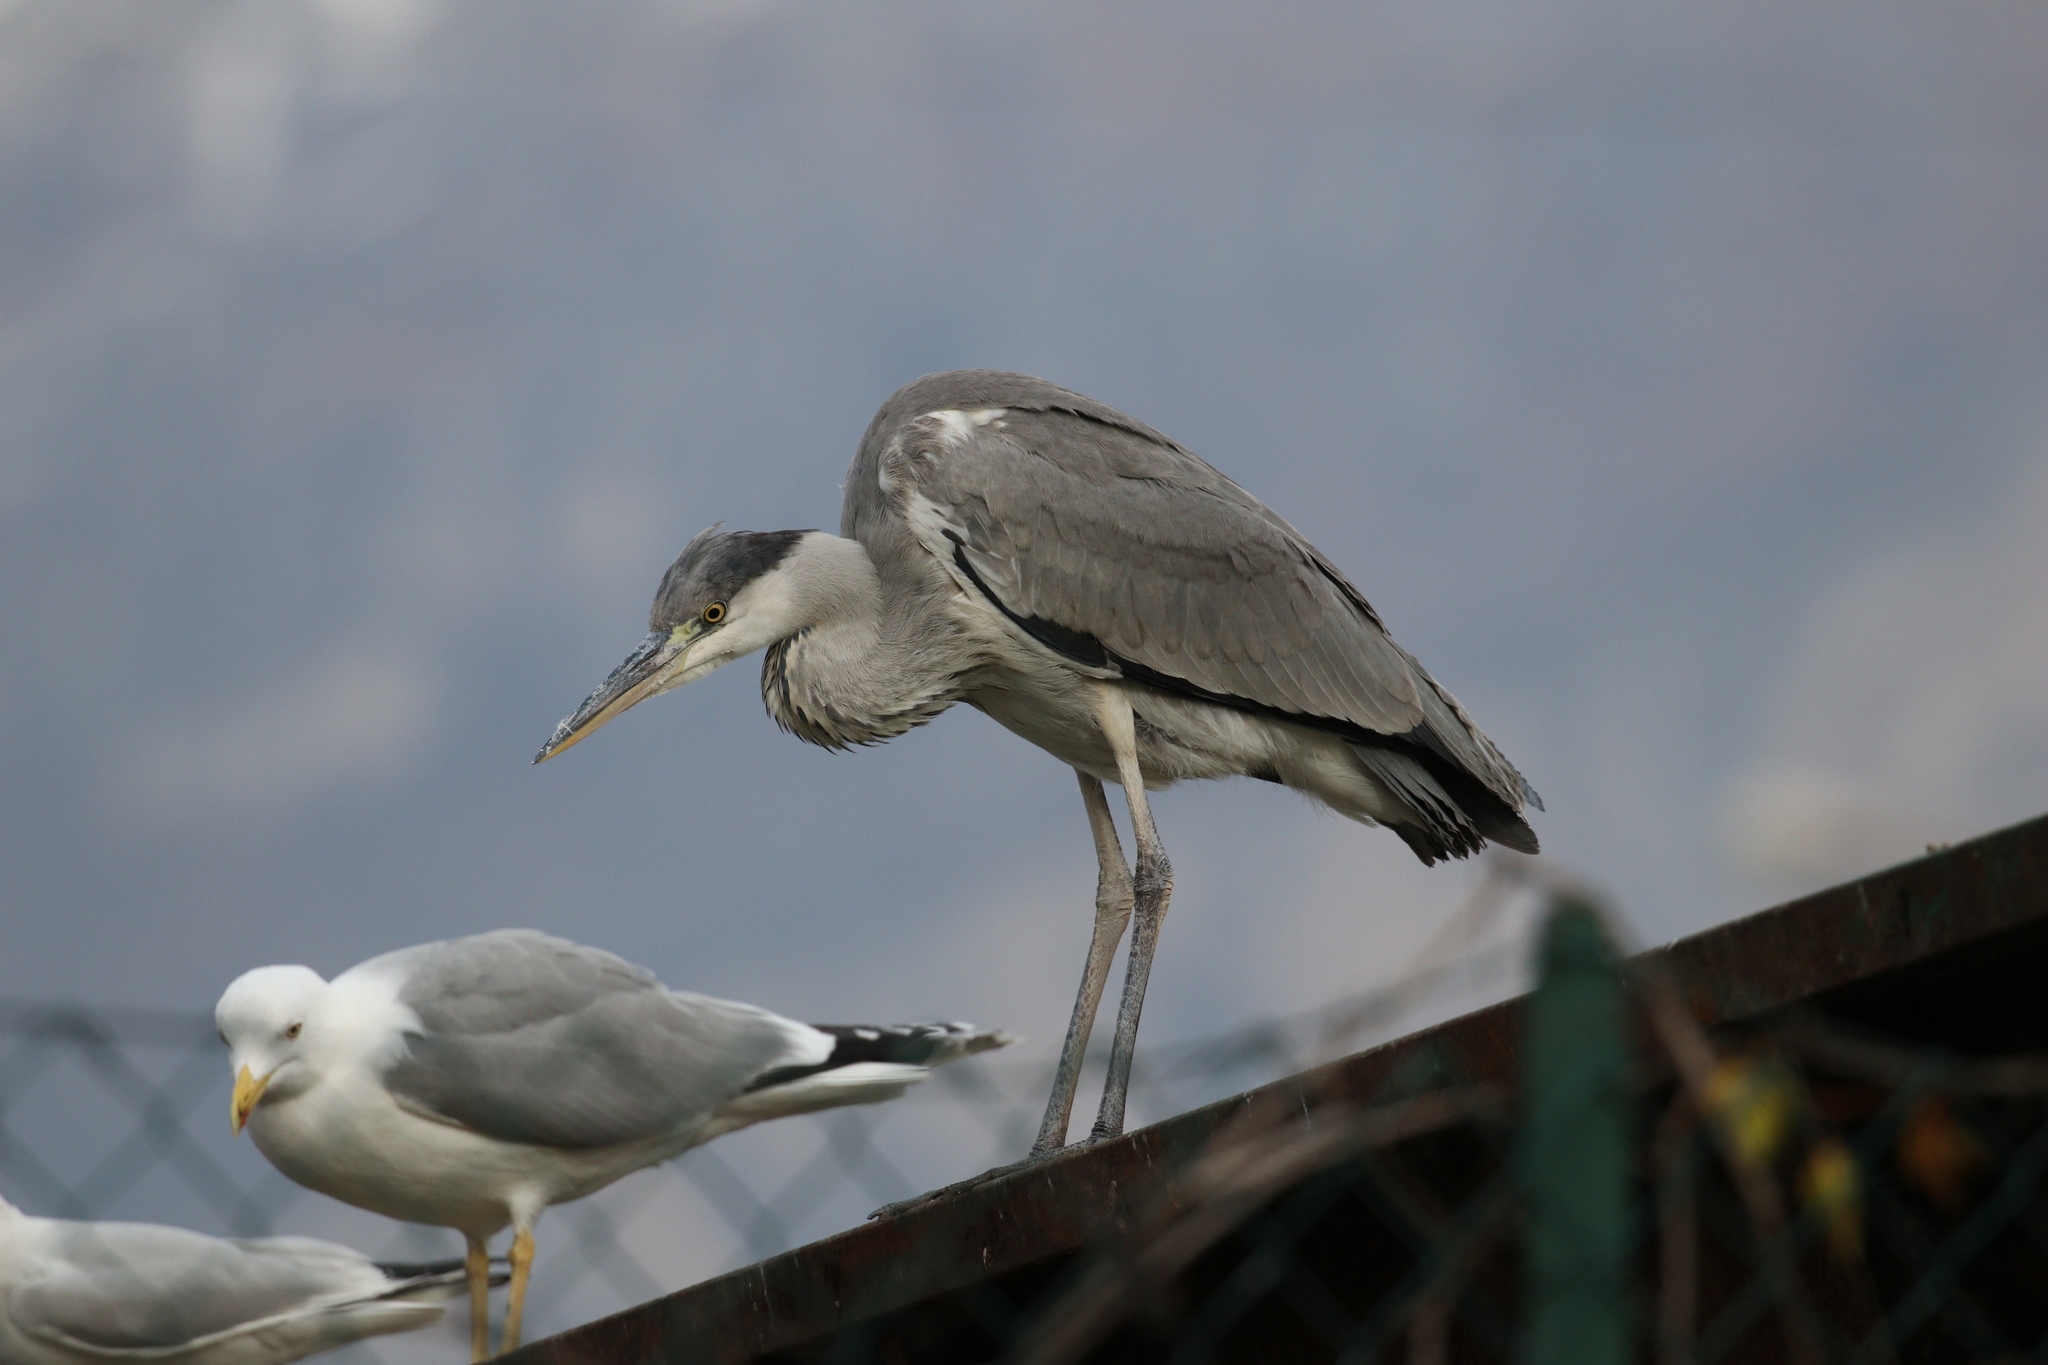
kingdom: Animalia
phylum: Chordata
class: Aves
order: Pelecaniformes
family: Ardeidae
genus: Ardea
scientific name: Ardea cinerea
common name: Grey heron
